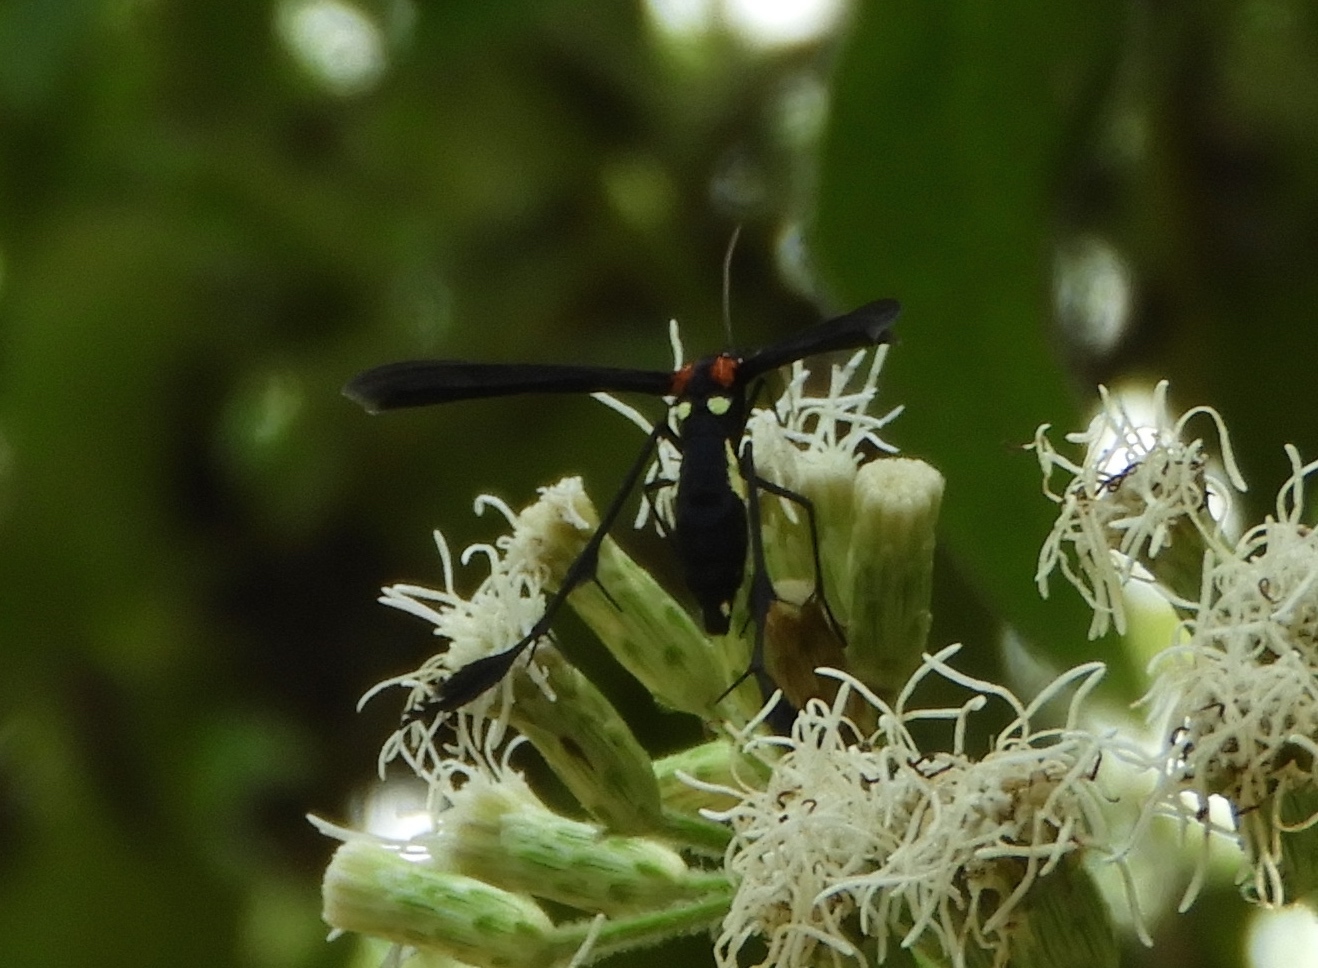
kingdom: Animalia
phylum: Arthropoda
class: Insecta
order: Lepidoptera
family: Pterophoridae
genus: Hellinsia
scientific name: Hellinsia chamelai
